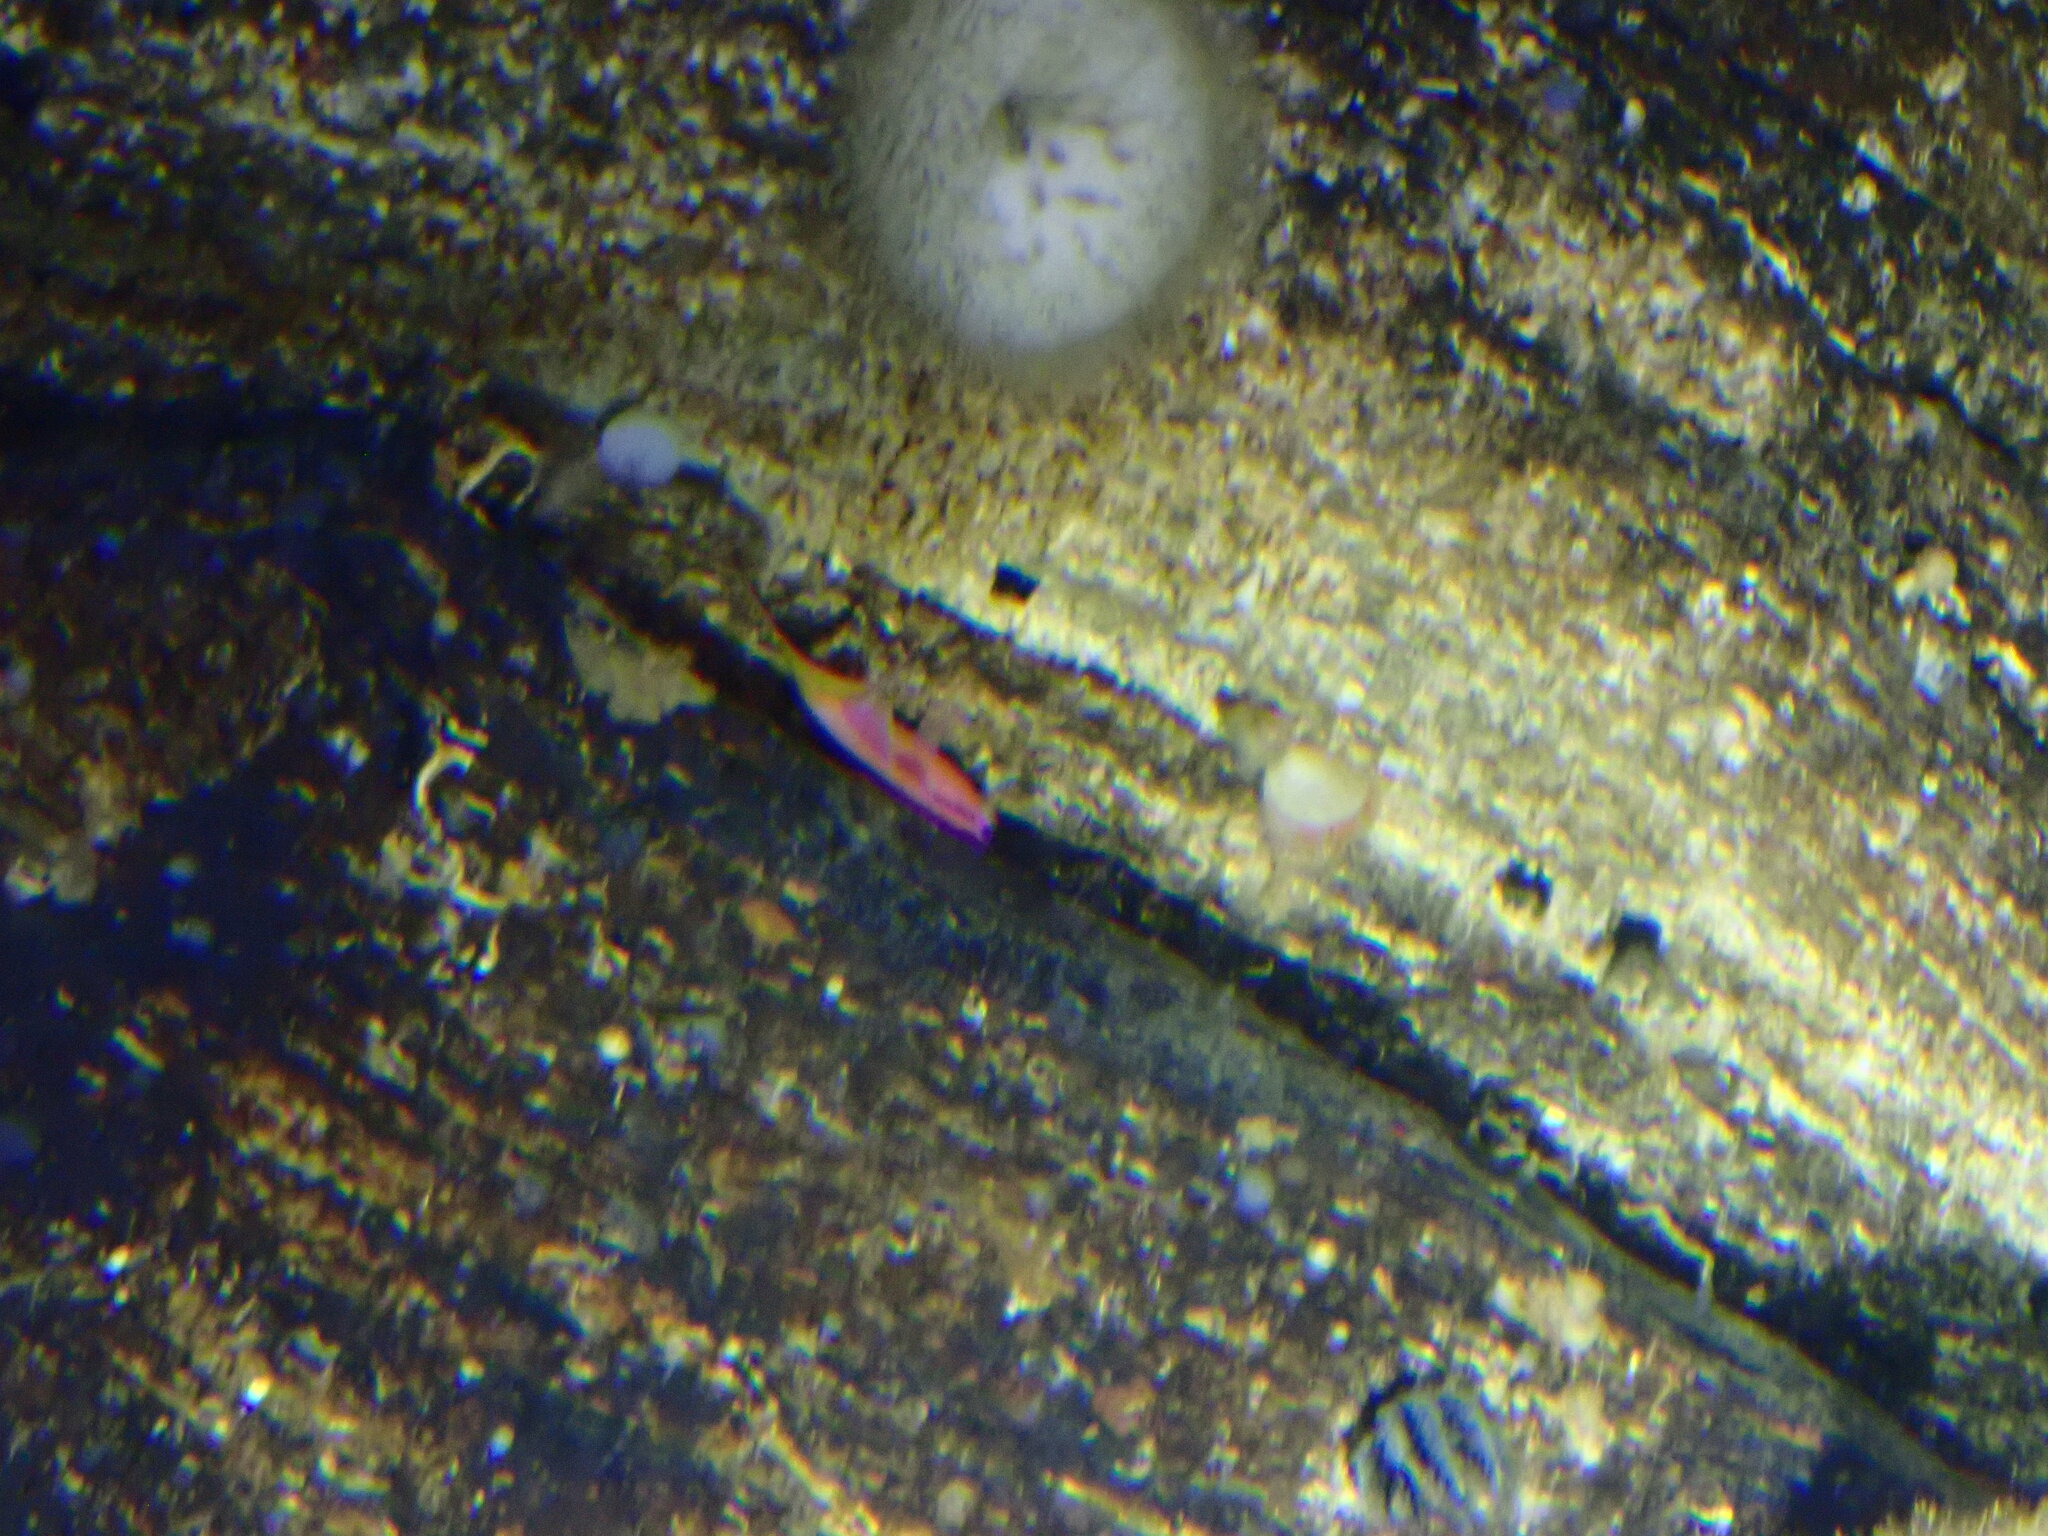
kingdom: Animalia
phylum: Chordata
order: Perciformes
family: Serranidae
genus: Anthias
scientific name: Anthias asperilinguis
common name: Jeweled gemfish
